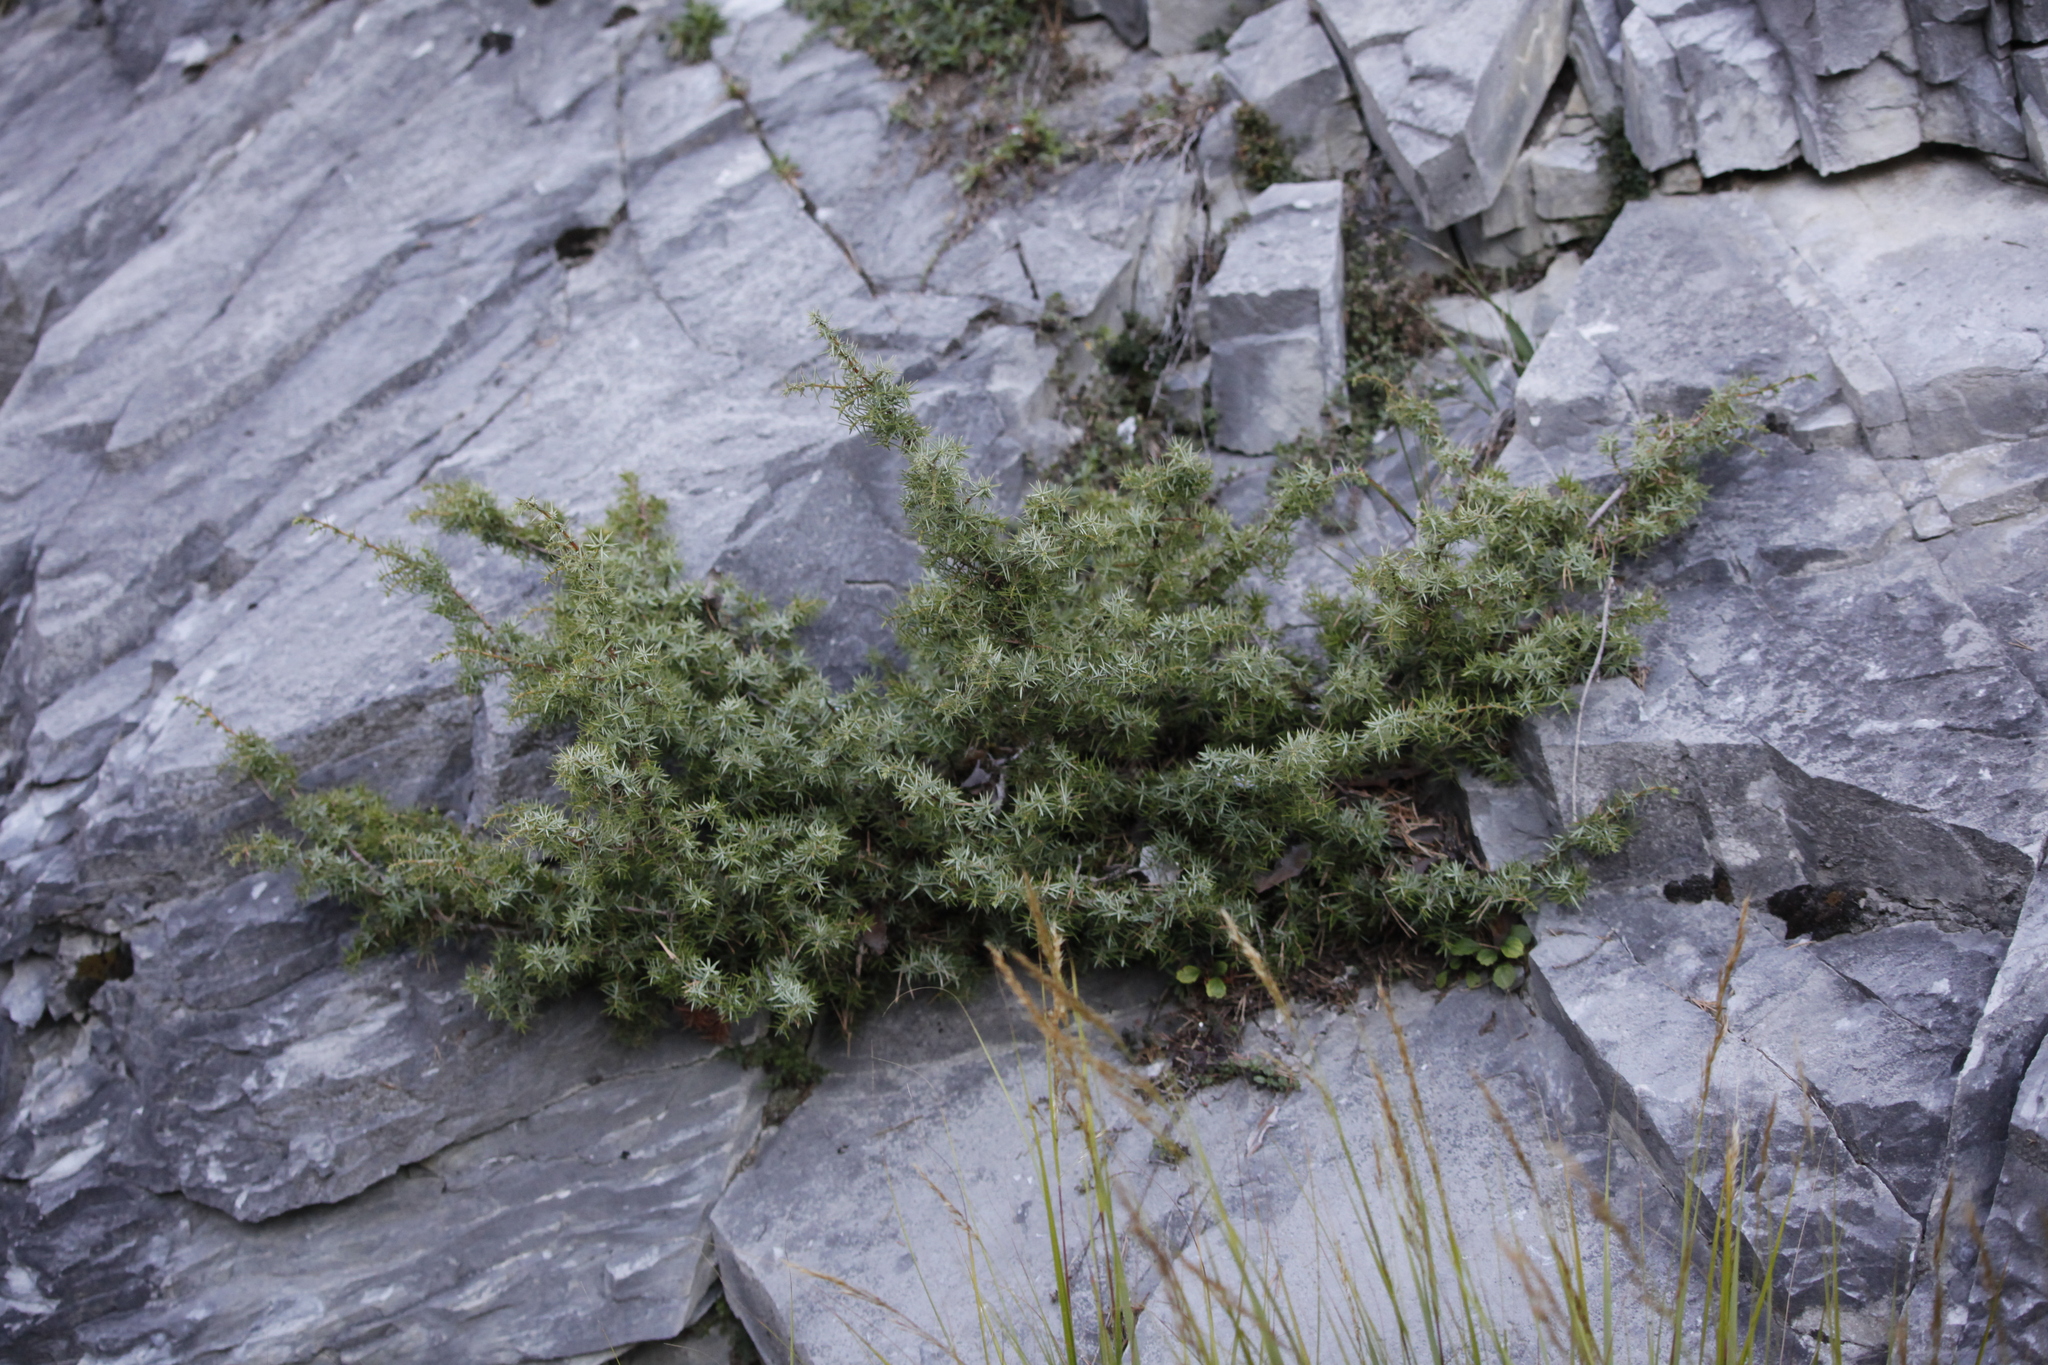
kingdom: Plantae
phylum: Tracheophyta
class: Pinopsida
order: Pinales
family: Cupressaceae
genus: Juniperus
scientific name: Juniperus communis
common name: Common juniper
